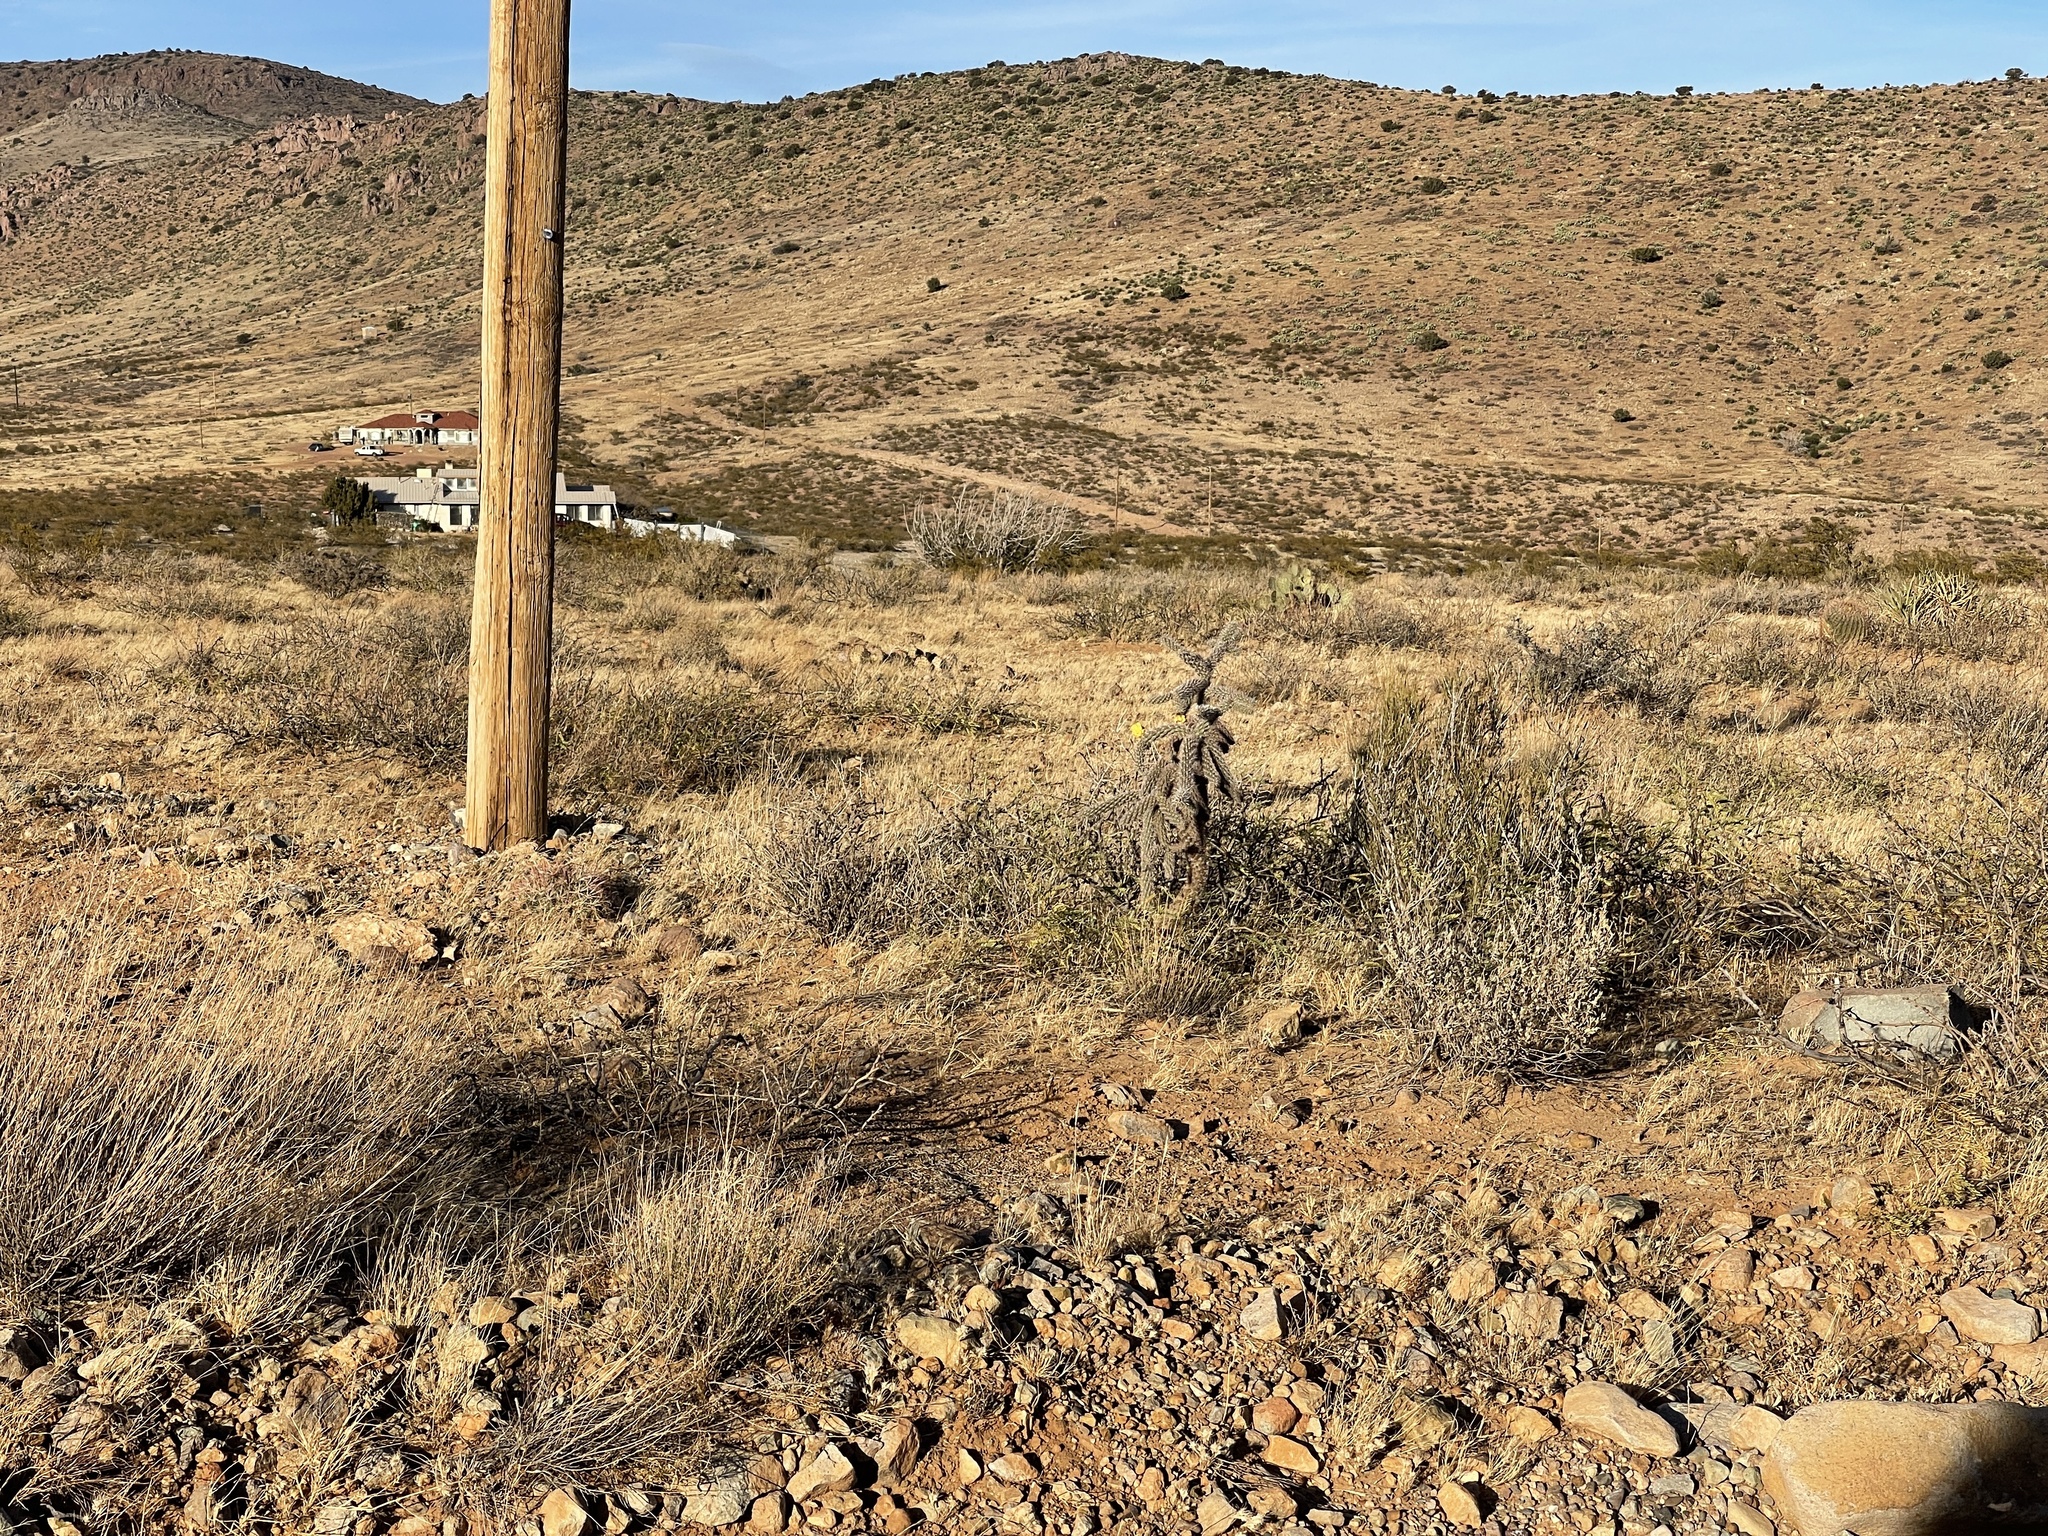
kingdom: Plantae
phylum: Tracheophyta
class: Magnoliopsida
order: Caryophyllales
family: Cactaceae
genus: Cylindropuntia
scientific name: Cylindropuntia imbricata
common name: Candelabrum cactus
